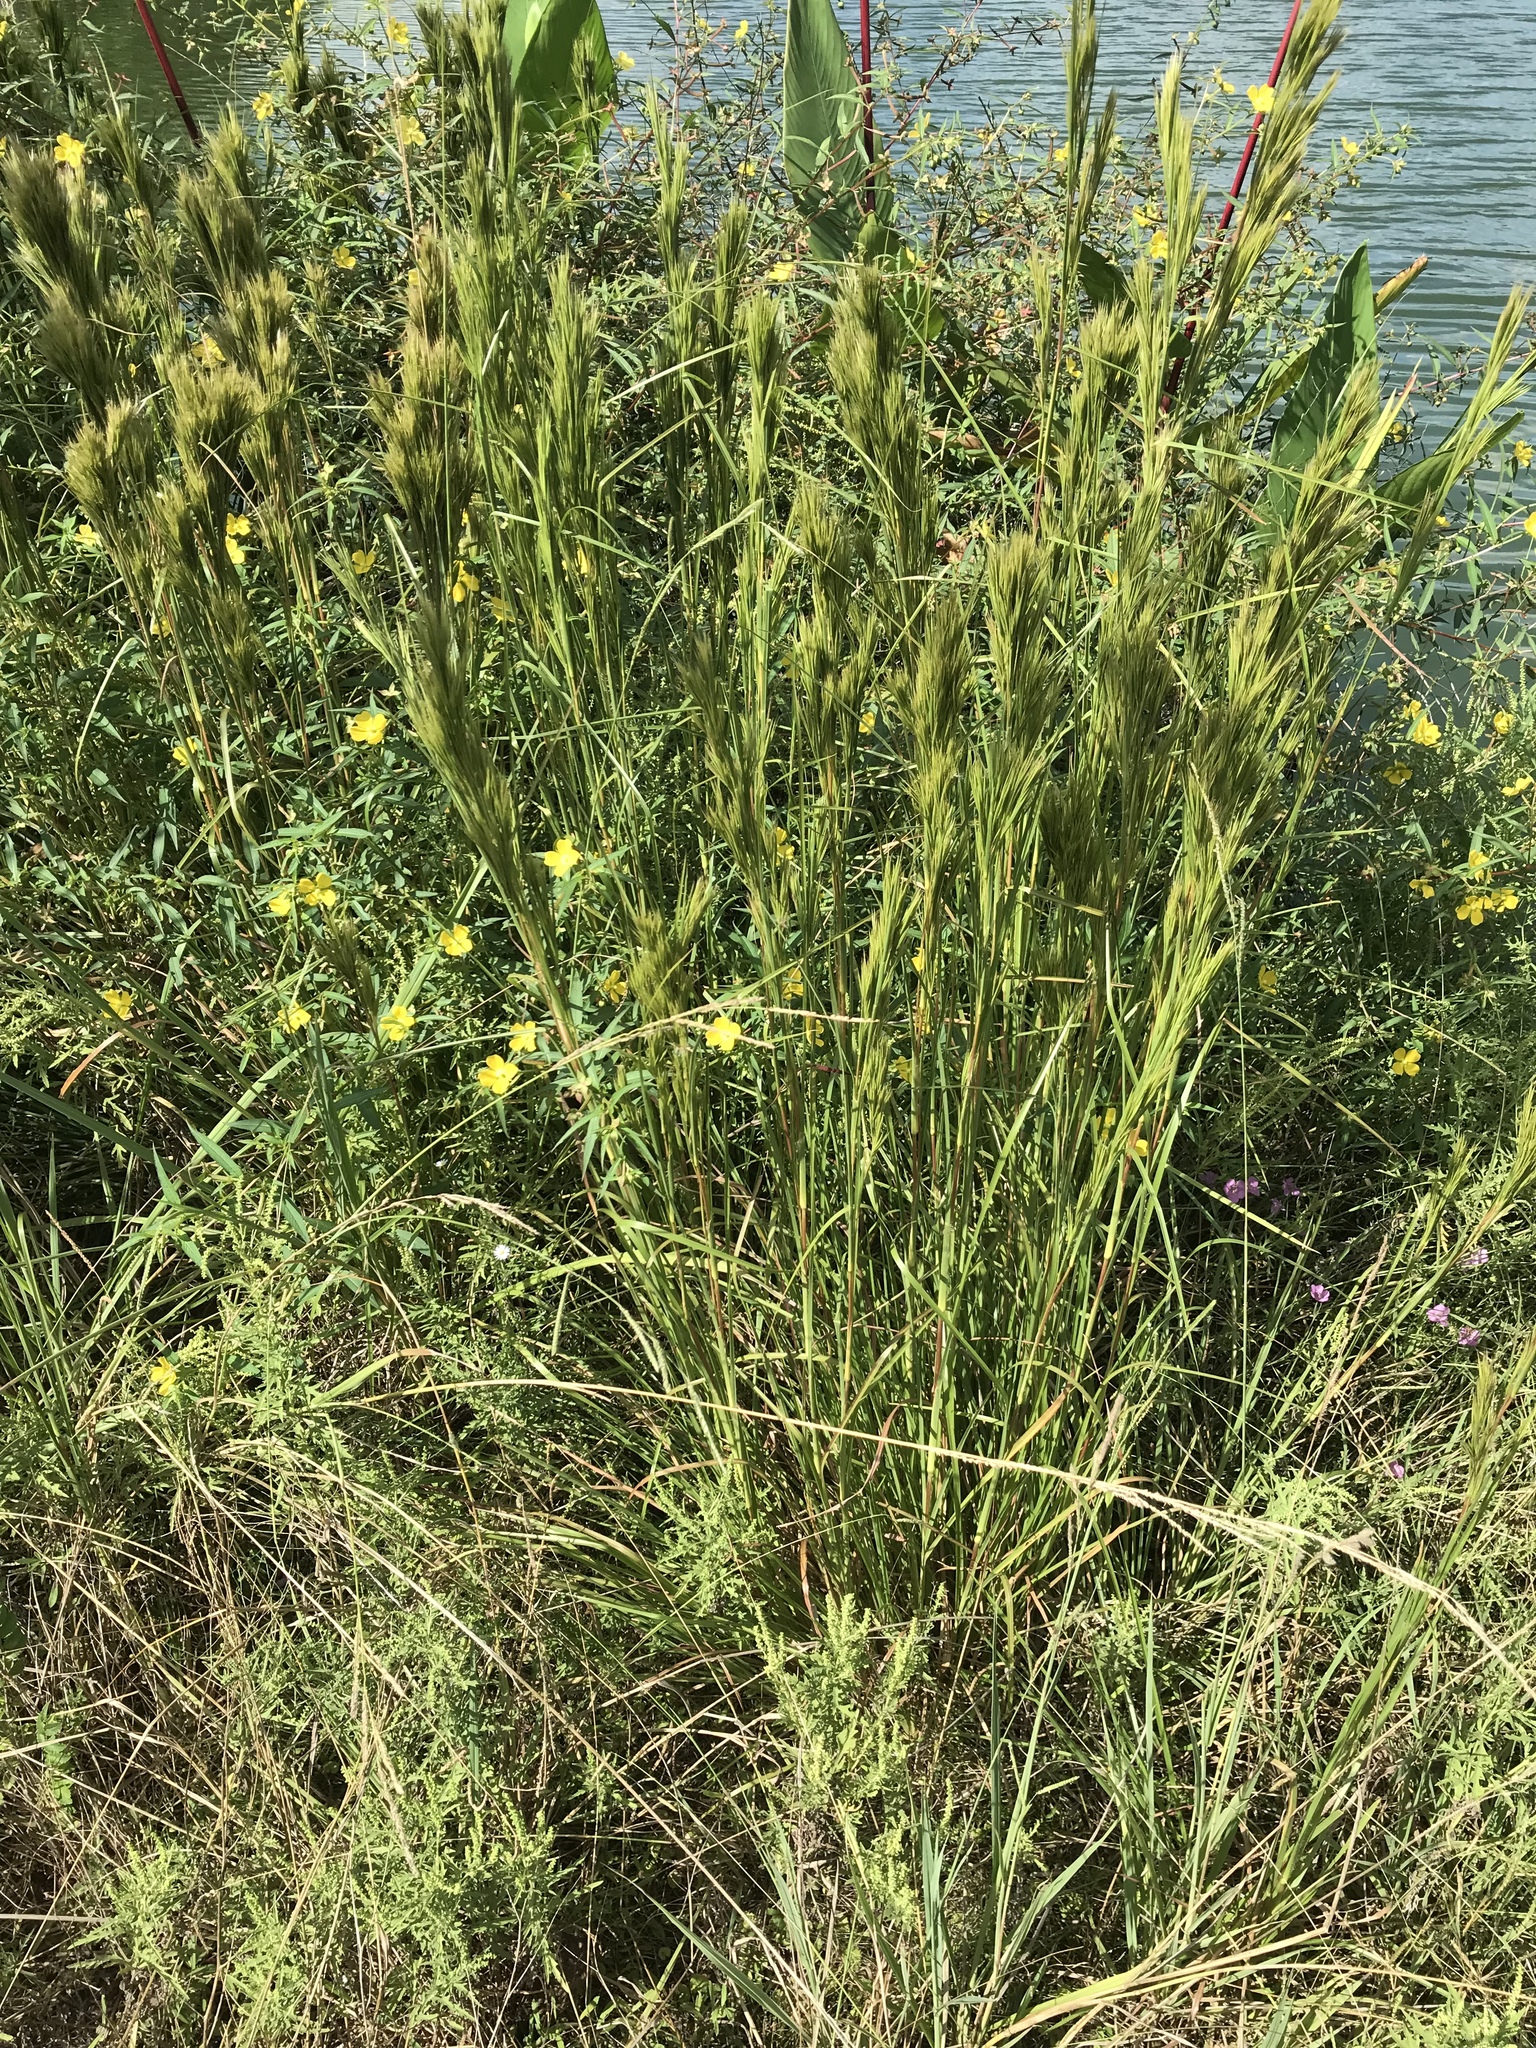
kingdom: Plantae
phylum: Tracheophyta
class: Liliopsida
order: Poales
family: Poaceae
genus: Andropogon
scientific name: Andropogon tenuispatheus
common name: Bushy bluestem
